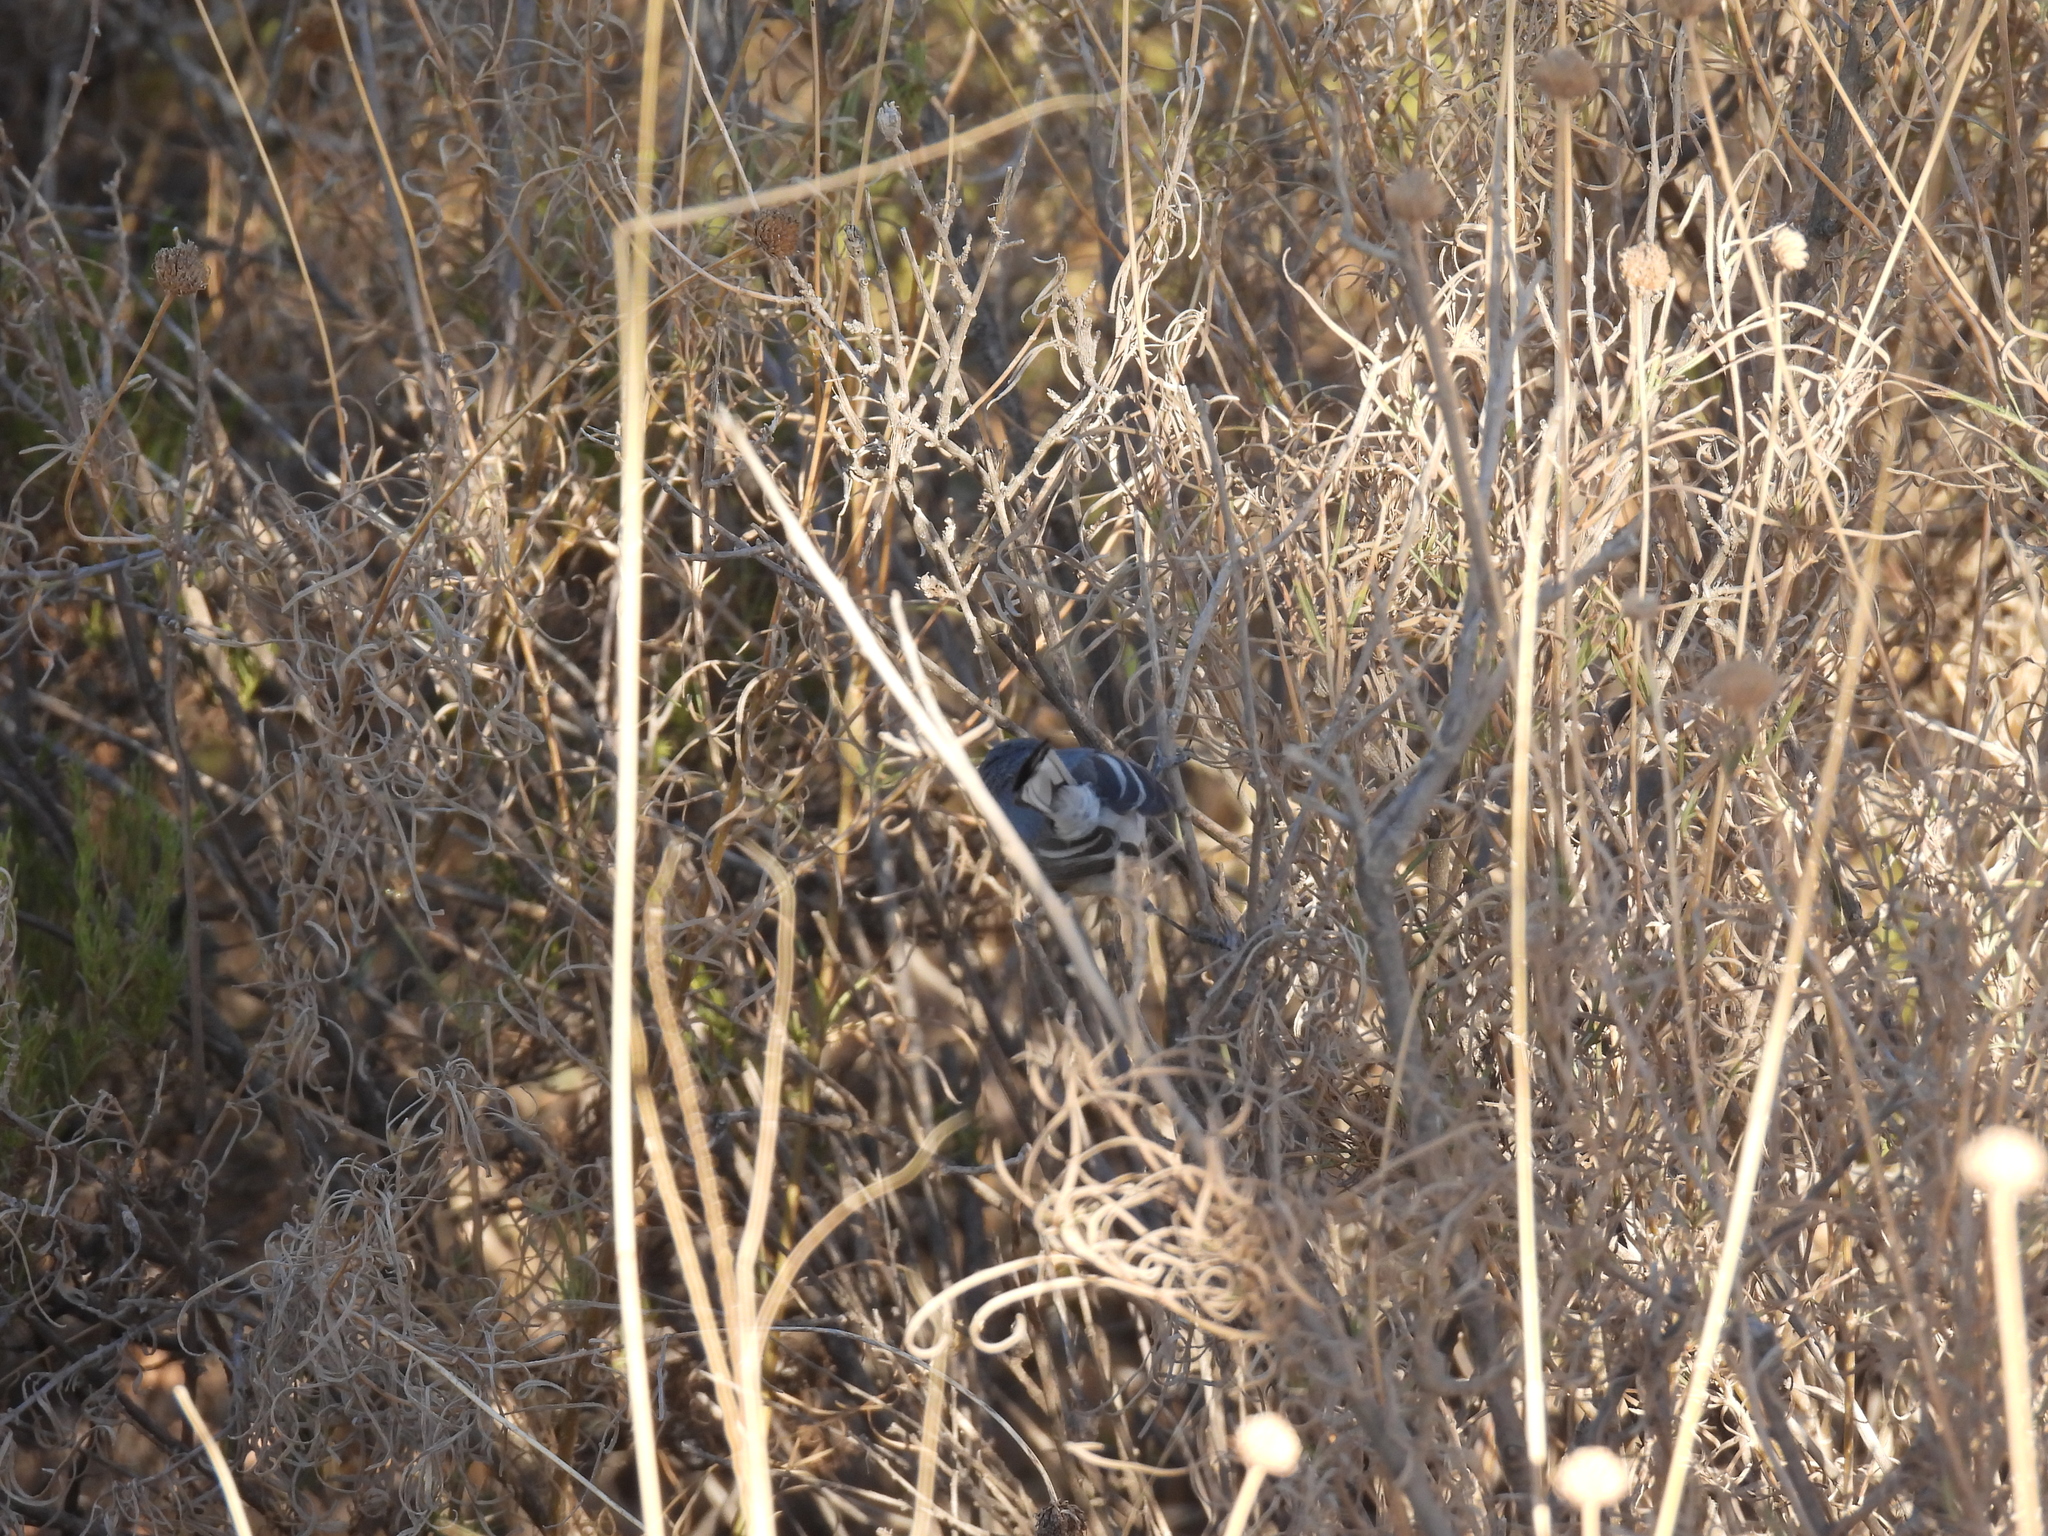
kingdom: Animalia
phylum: Chordata
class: Aves
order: Passeriformes
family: Polioptilidae
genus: Polioptila
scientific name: Polioptila caerulea
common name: Blue-gray gnatcatcher
